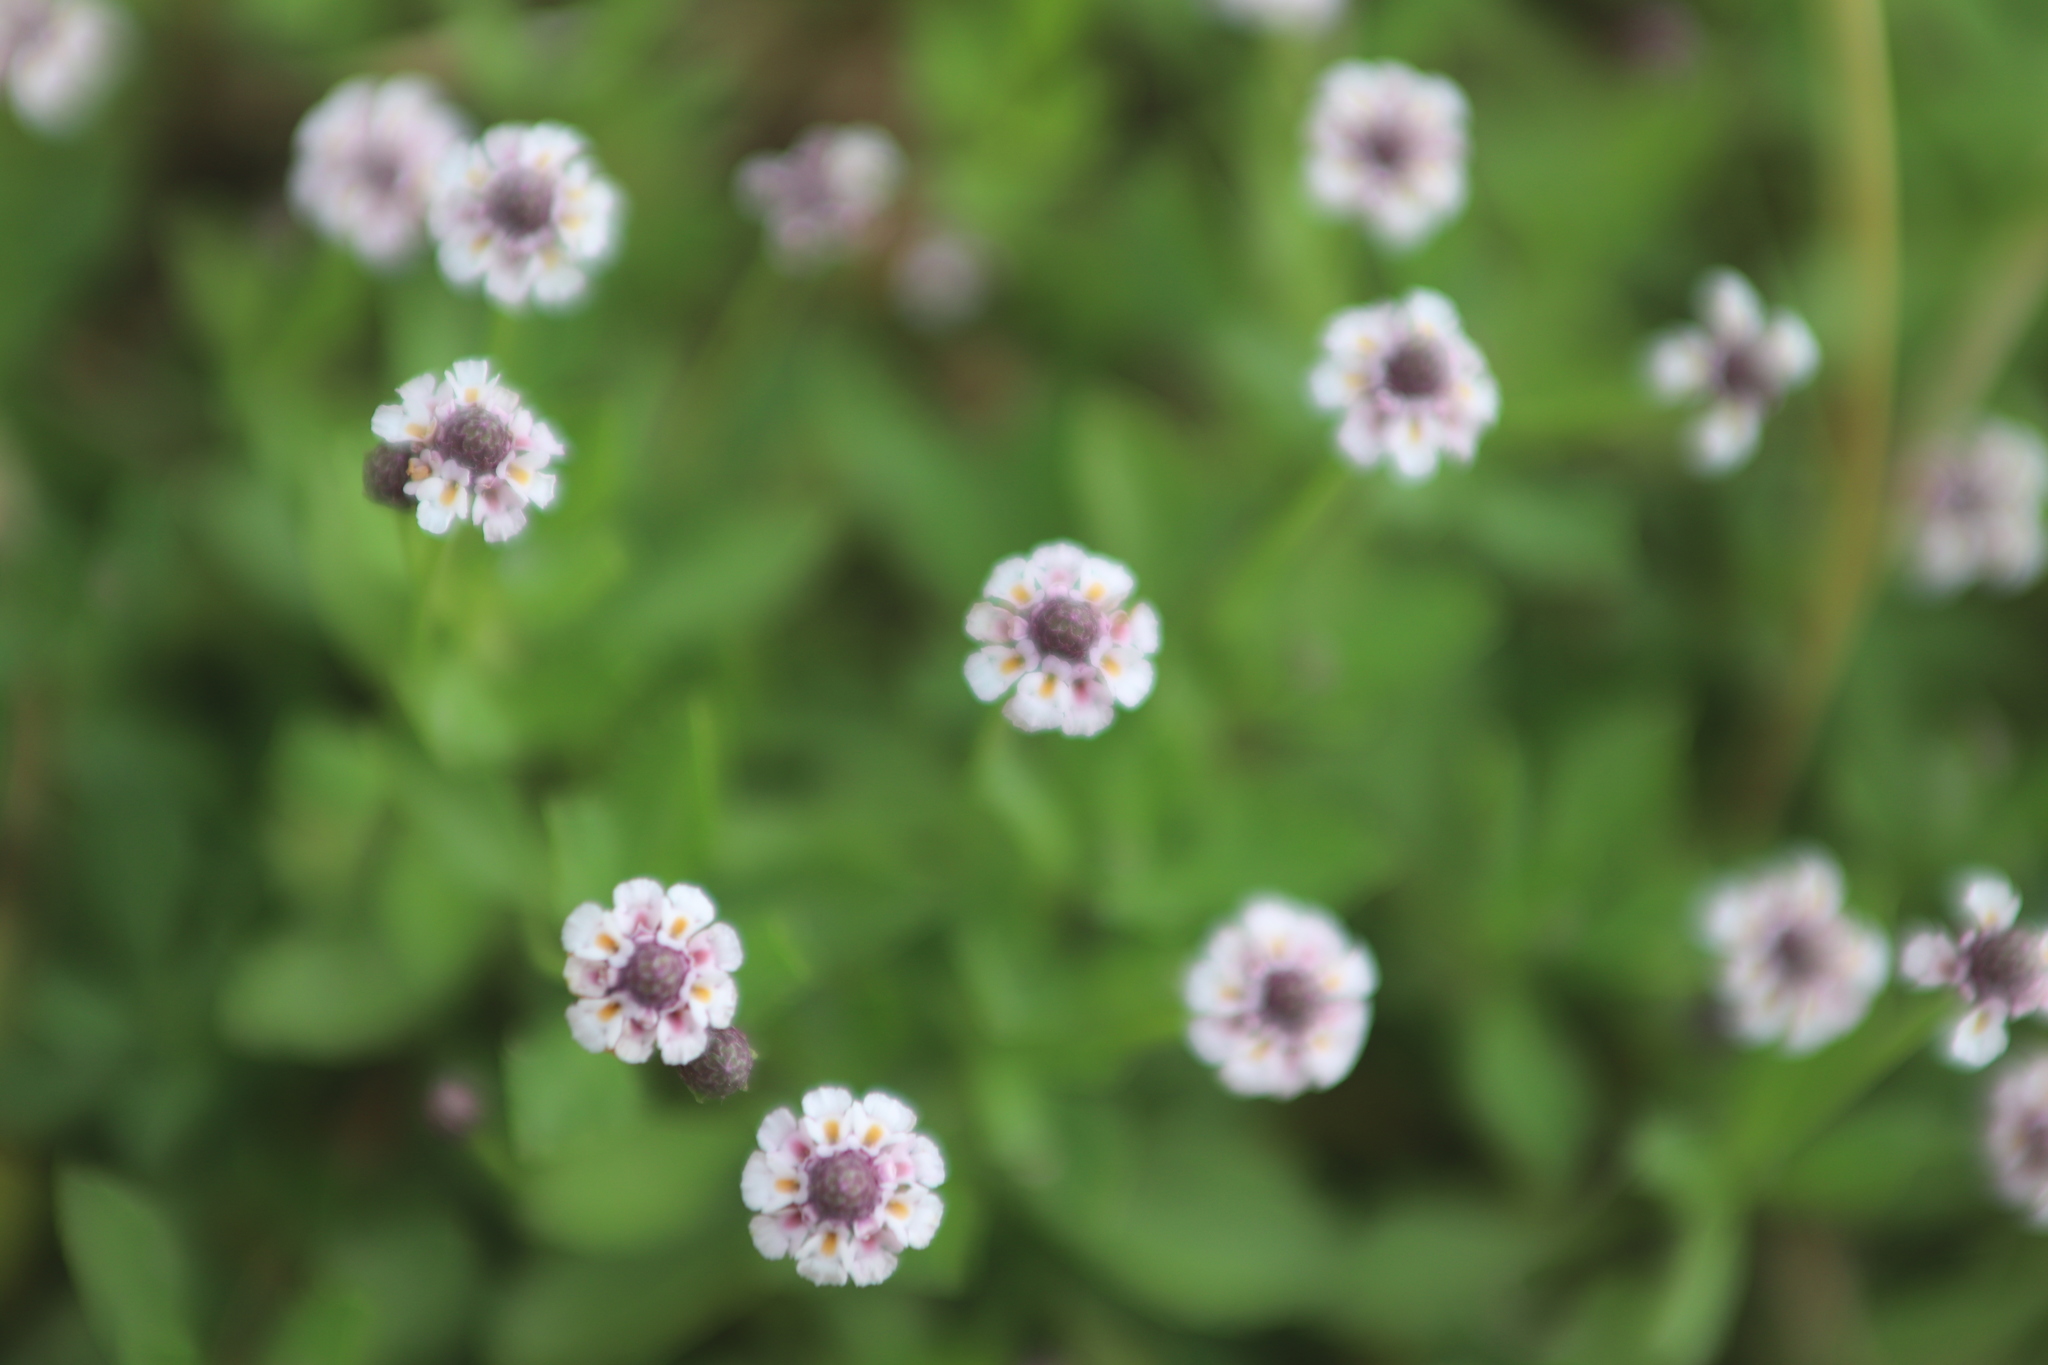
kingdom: Plantae
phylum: Tracheophyta
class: Magnoliopsida
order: Lamiales
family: Verbenaceae
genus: Phyla
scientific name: Phyla nodiflora
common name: Frogfruit
